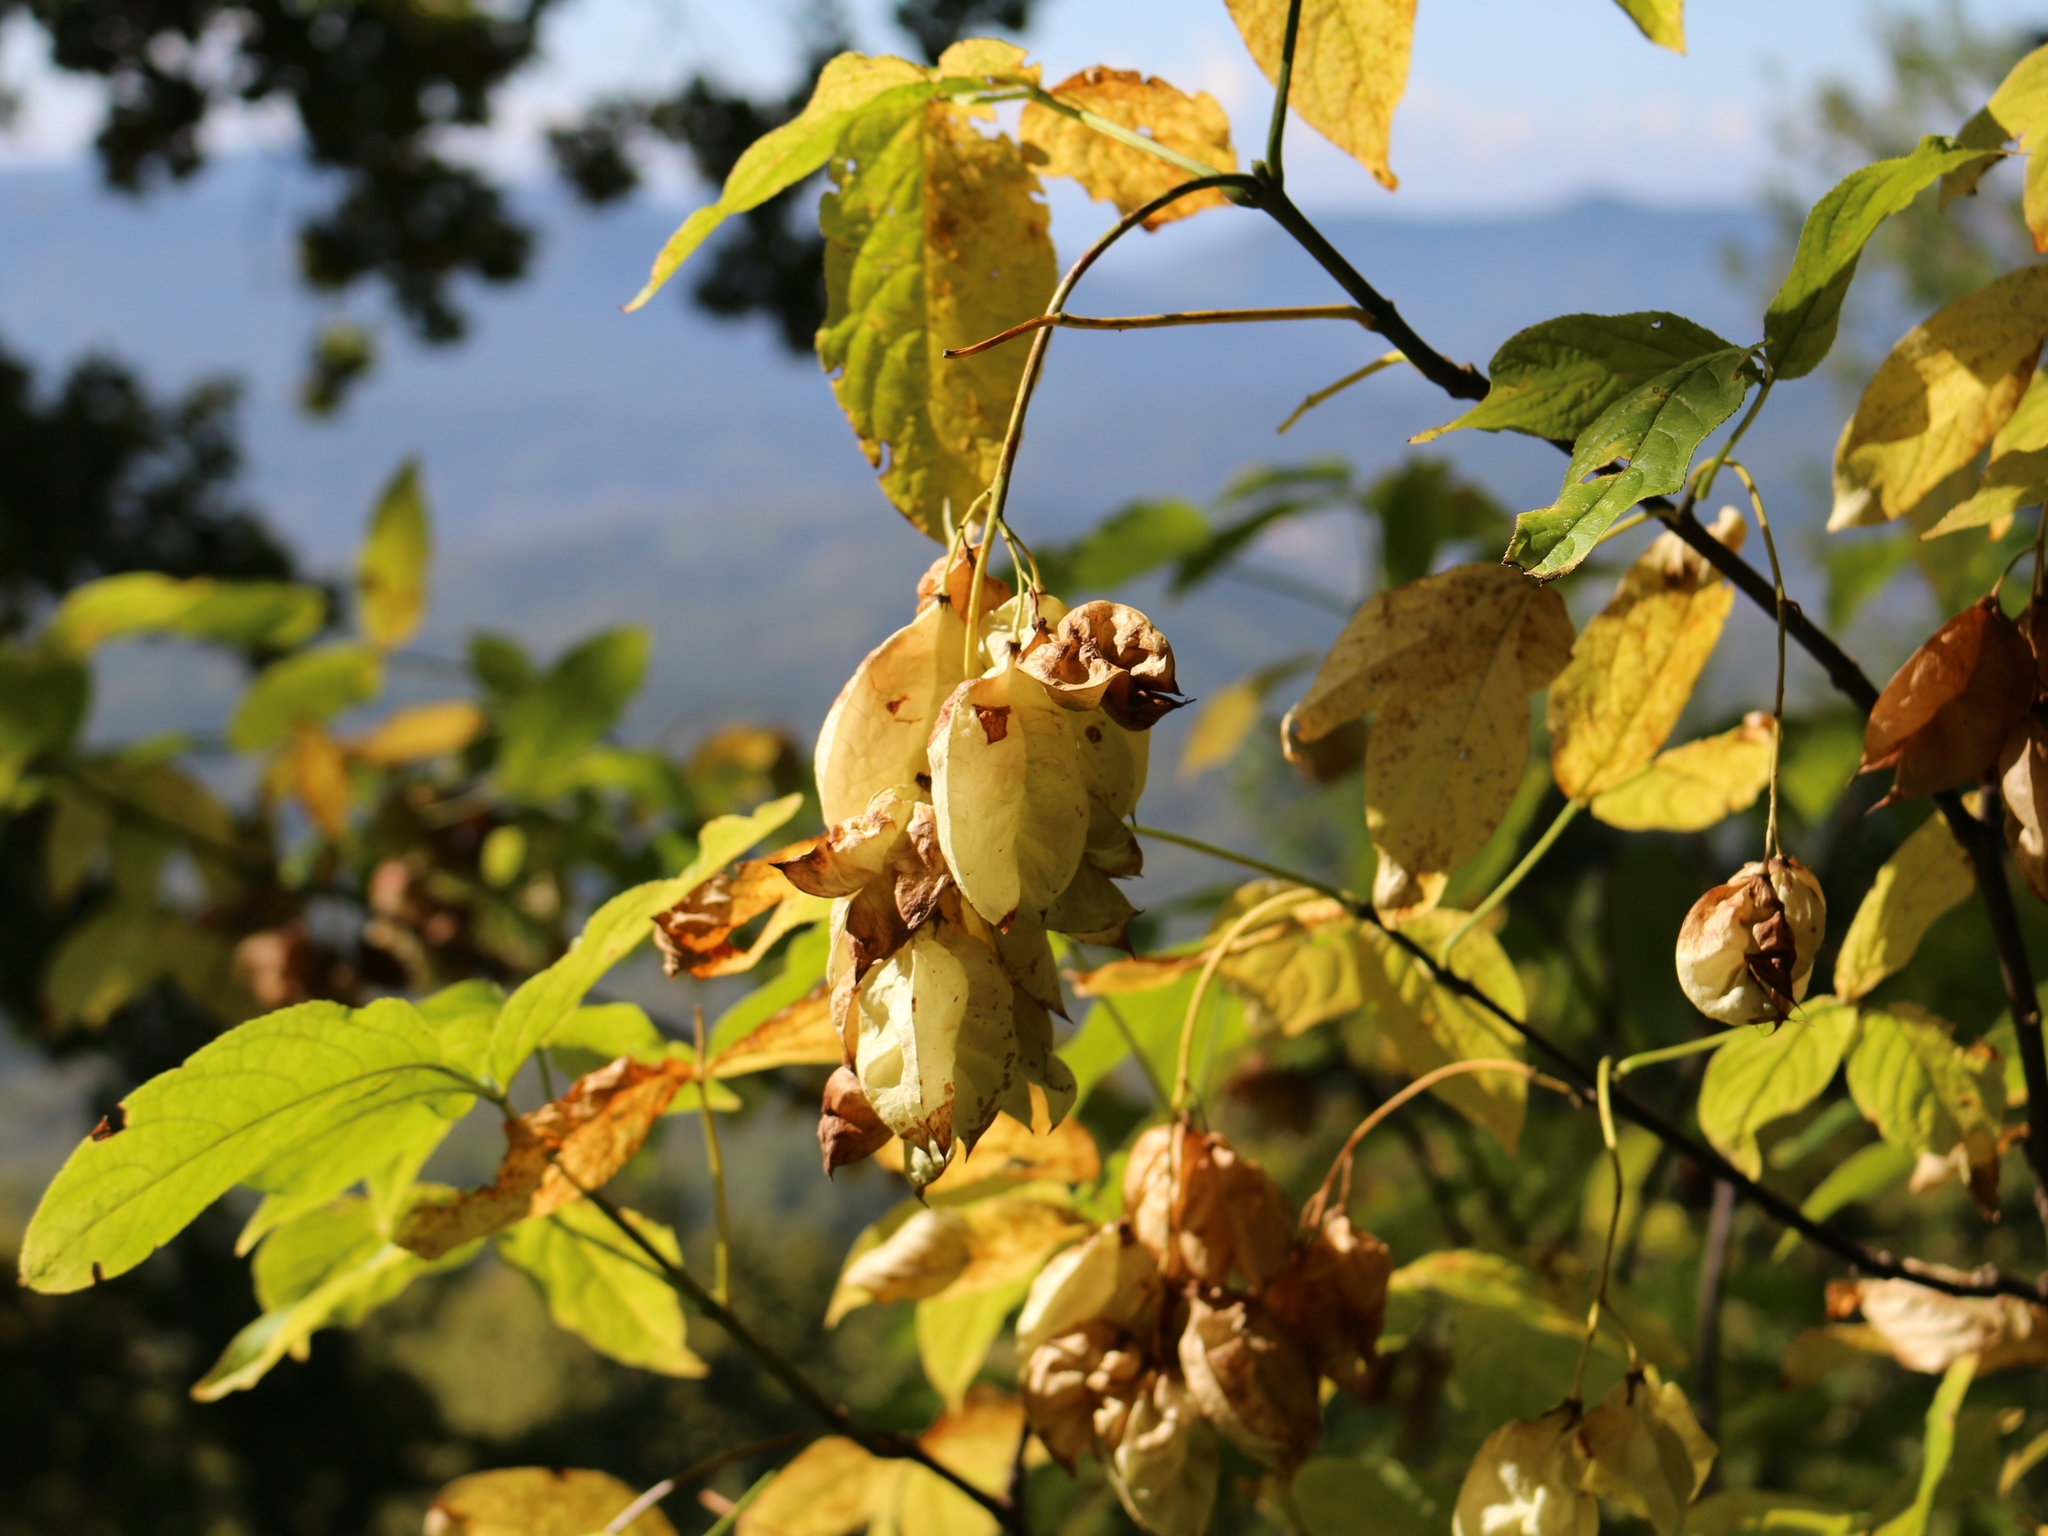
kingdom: Plantae
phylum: Tracheophyta
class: Magnoliopsida
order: Crossosomatales
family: Staphyleaceae
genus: Staphylea
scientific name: Staphylea colchica
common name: Caucasian bladdernut
